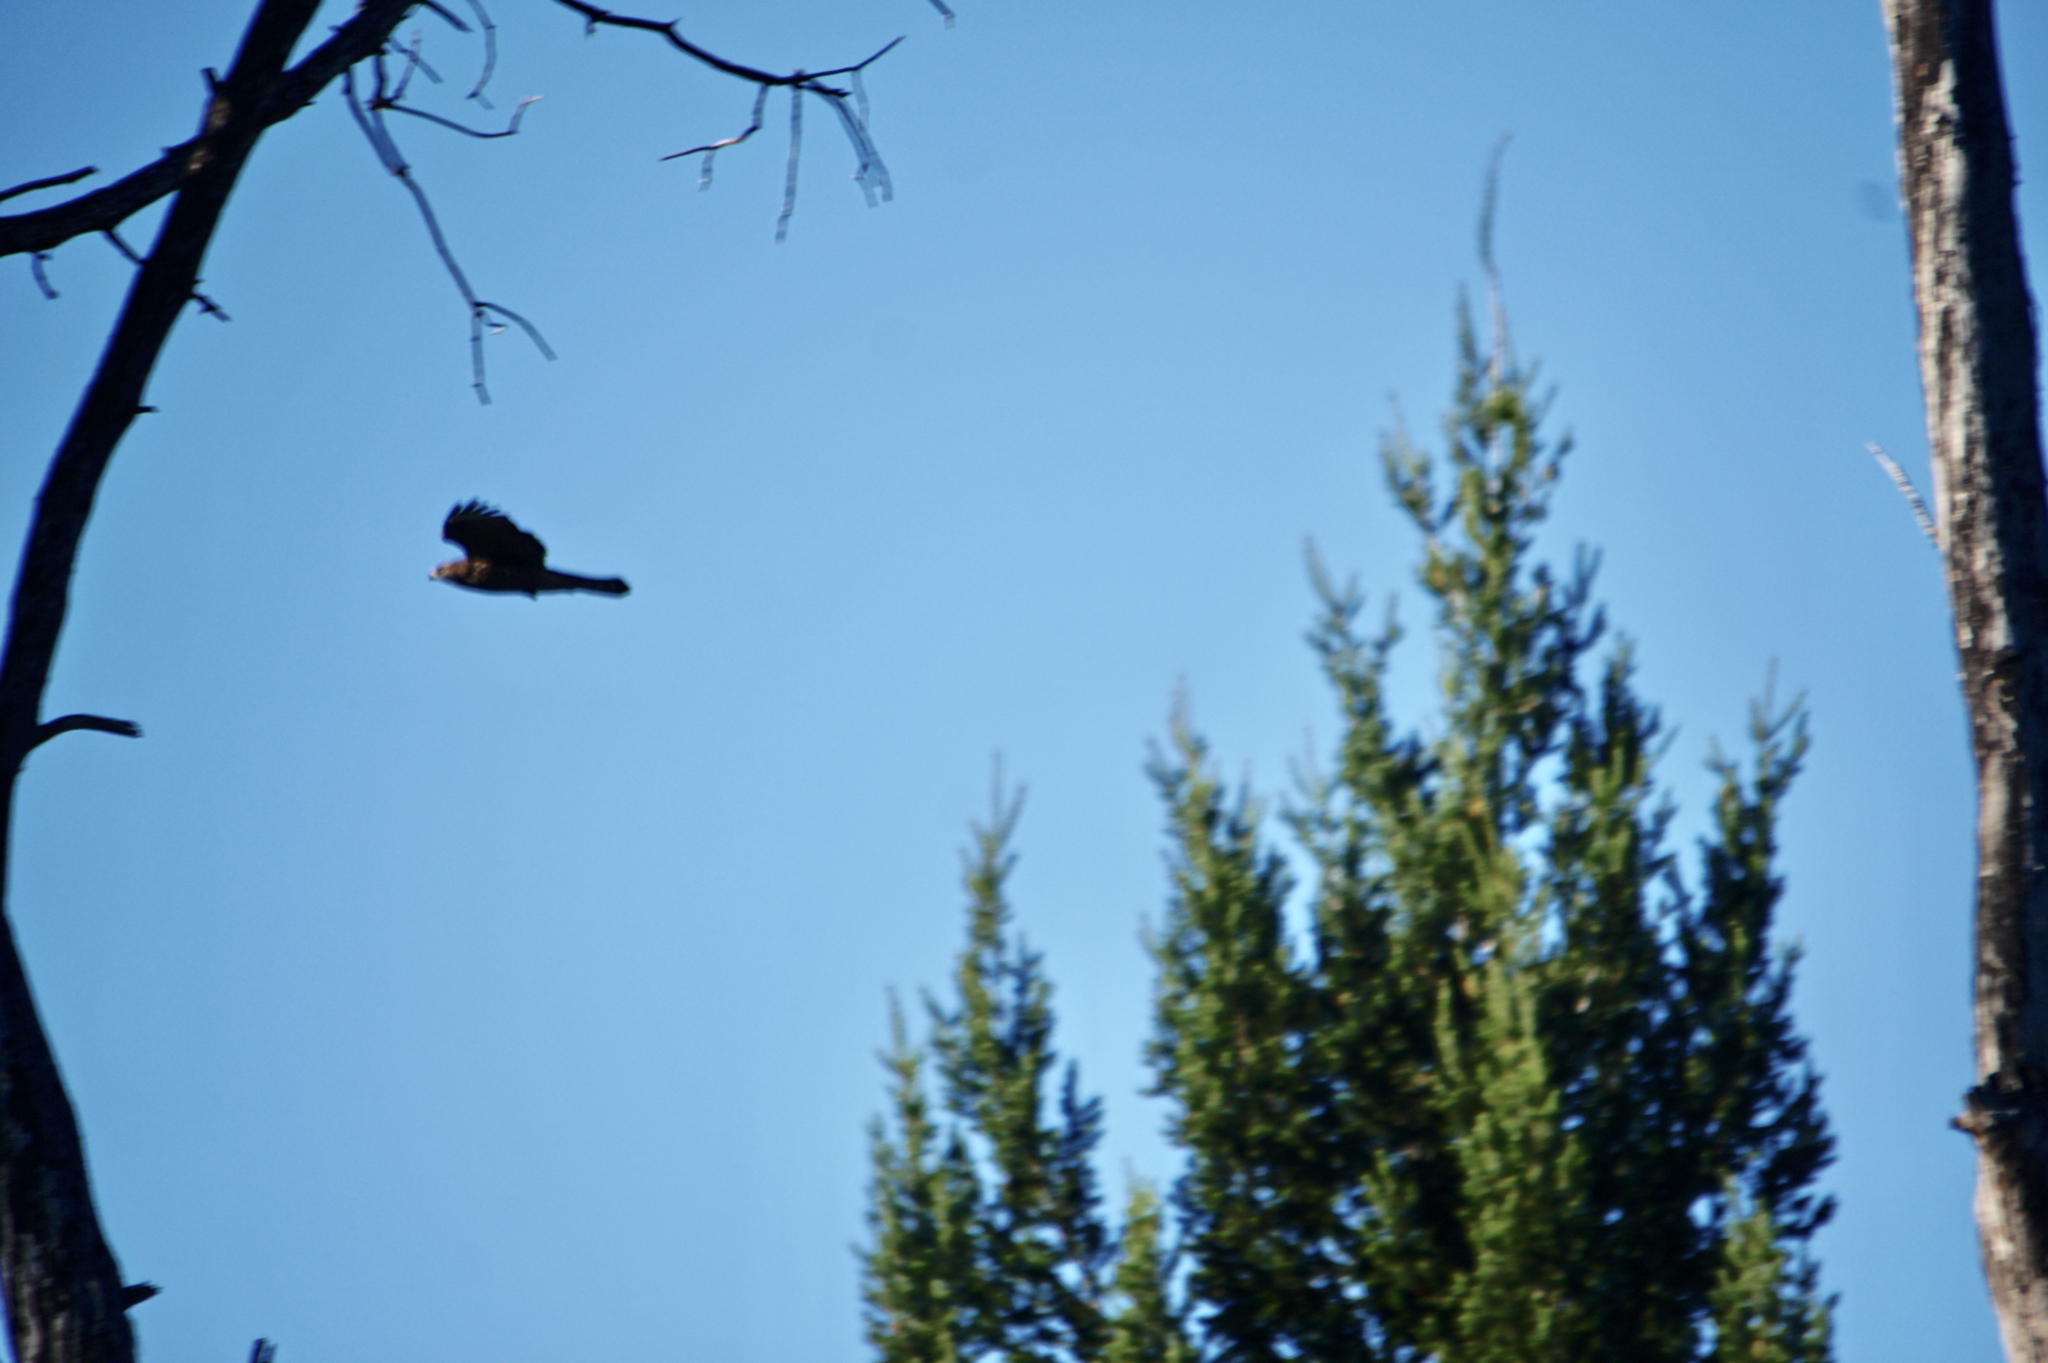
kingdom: Animalia
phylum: Chordata
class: Aves
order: Accipitriformes
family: Accipitridae
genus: Buteo
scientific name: Buteo jamaicensis
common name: Red-tailed hawk
